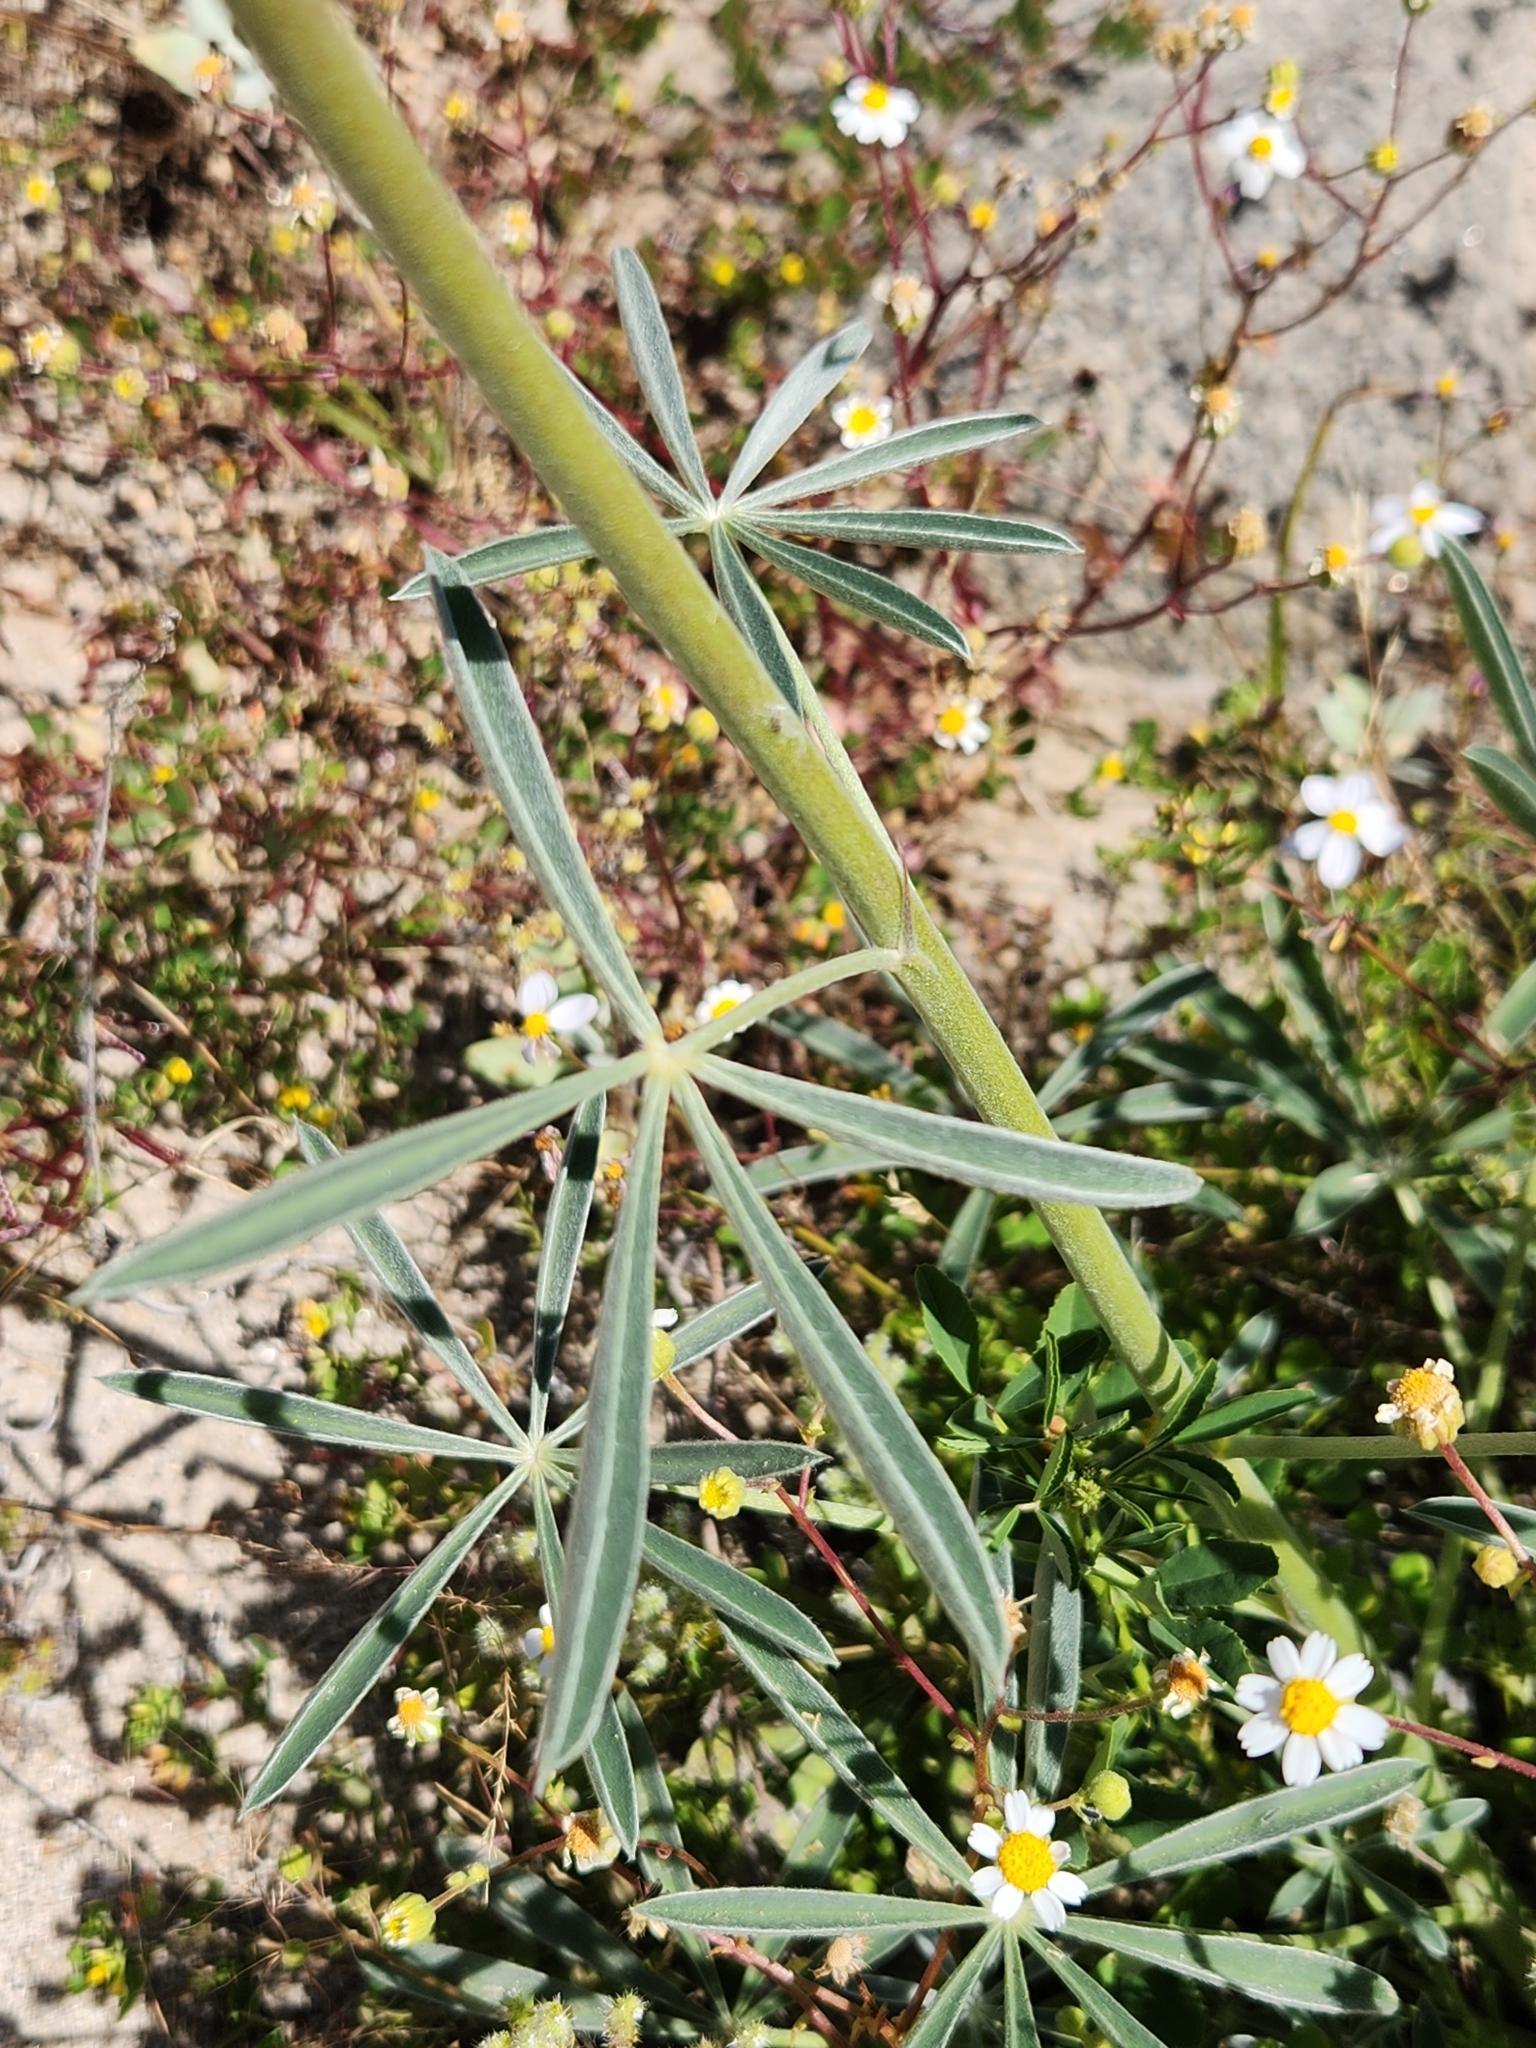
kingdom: Plantae
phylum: Tracheophyta
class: Magnoliopsida
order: Fabales
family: Fabaceae
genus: Lupinus
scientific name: Lupinus arizonicus
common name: Arizona lupine
